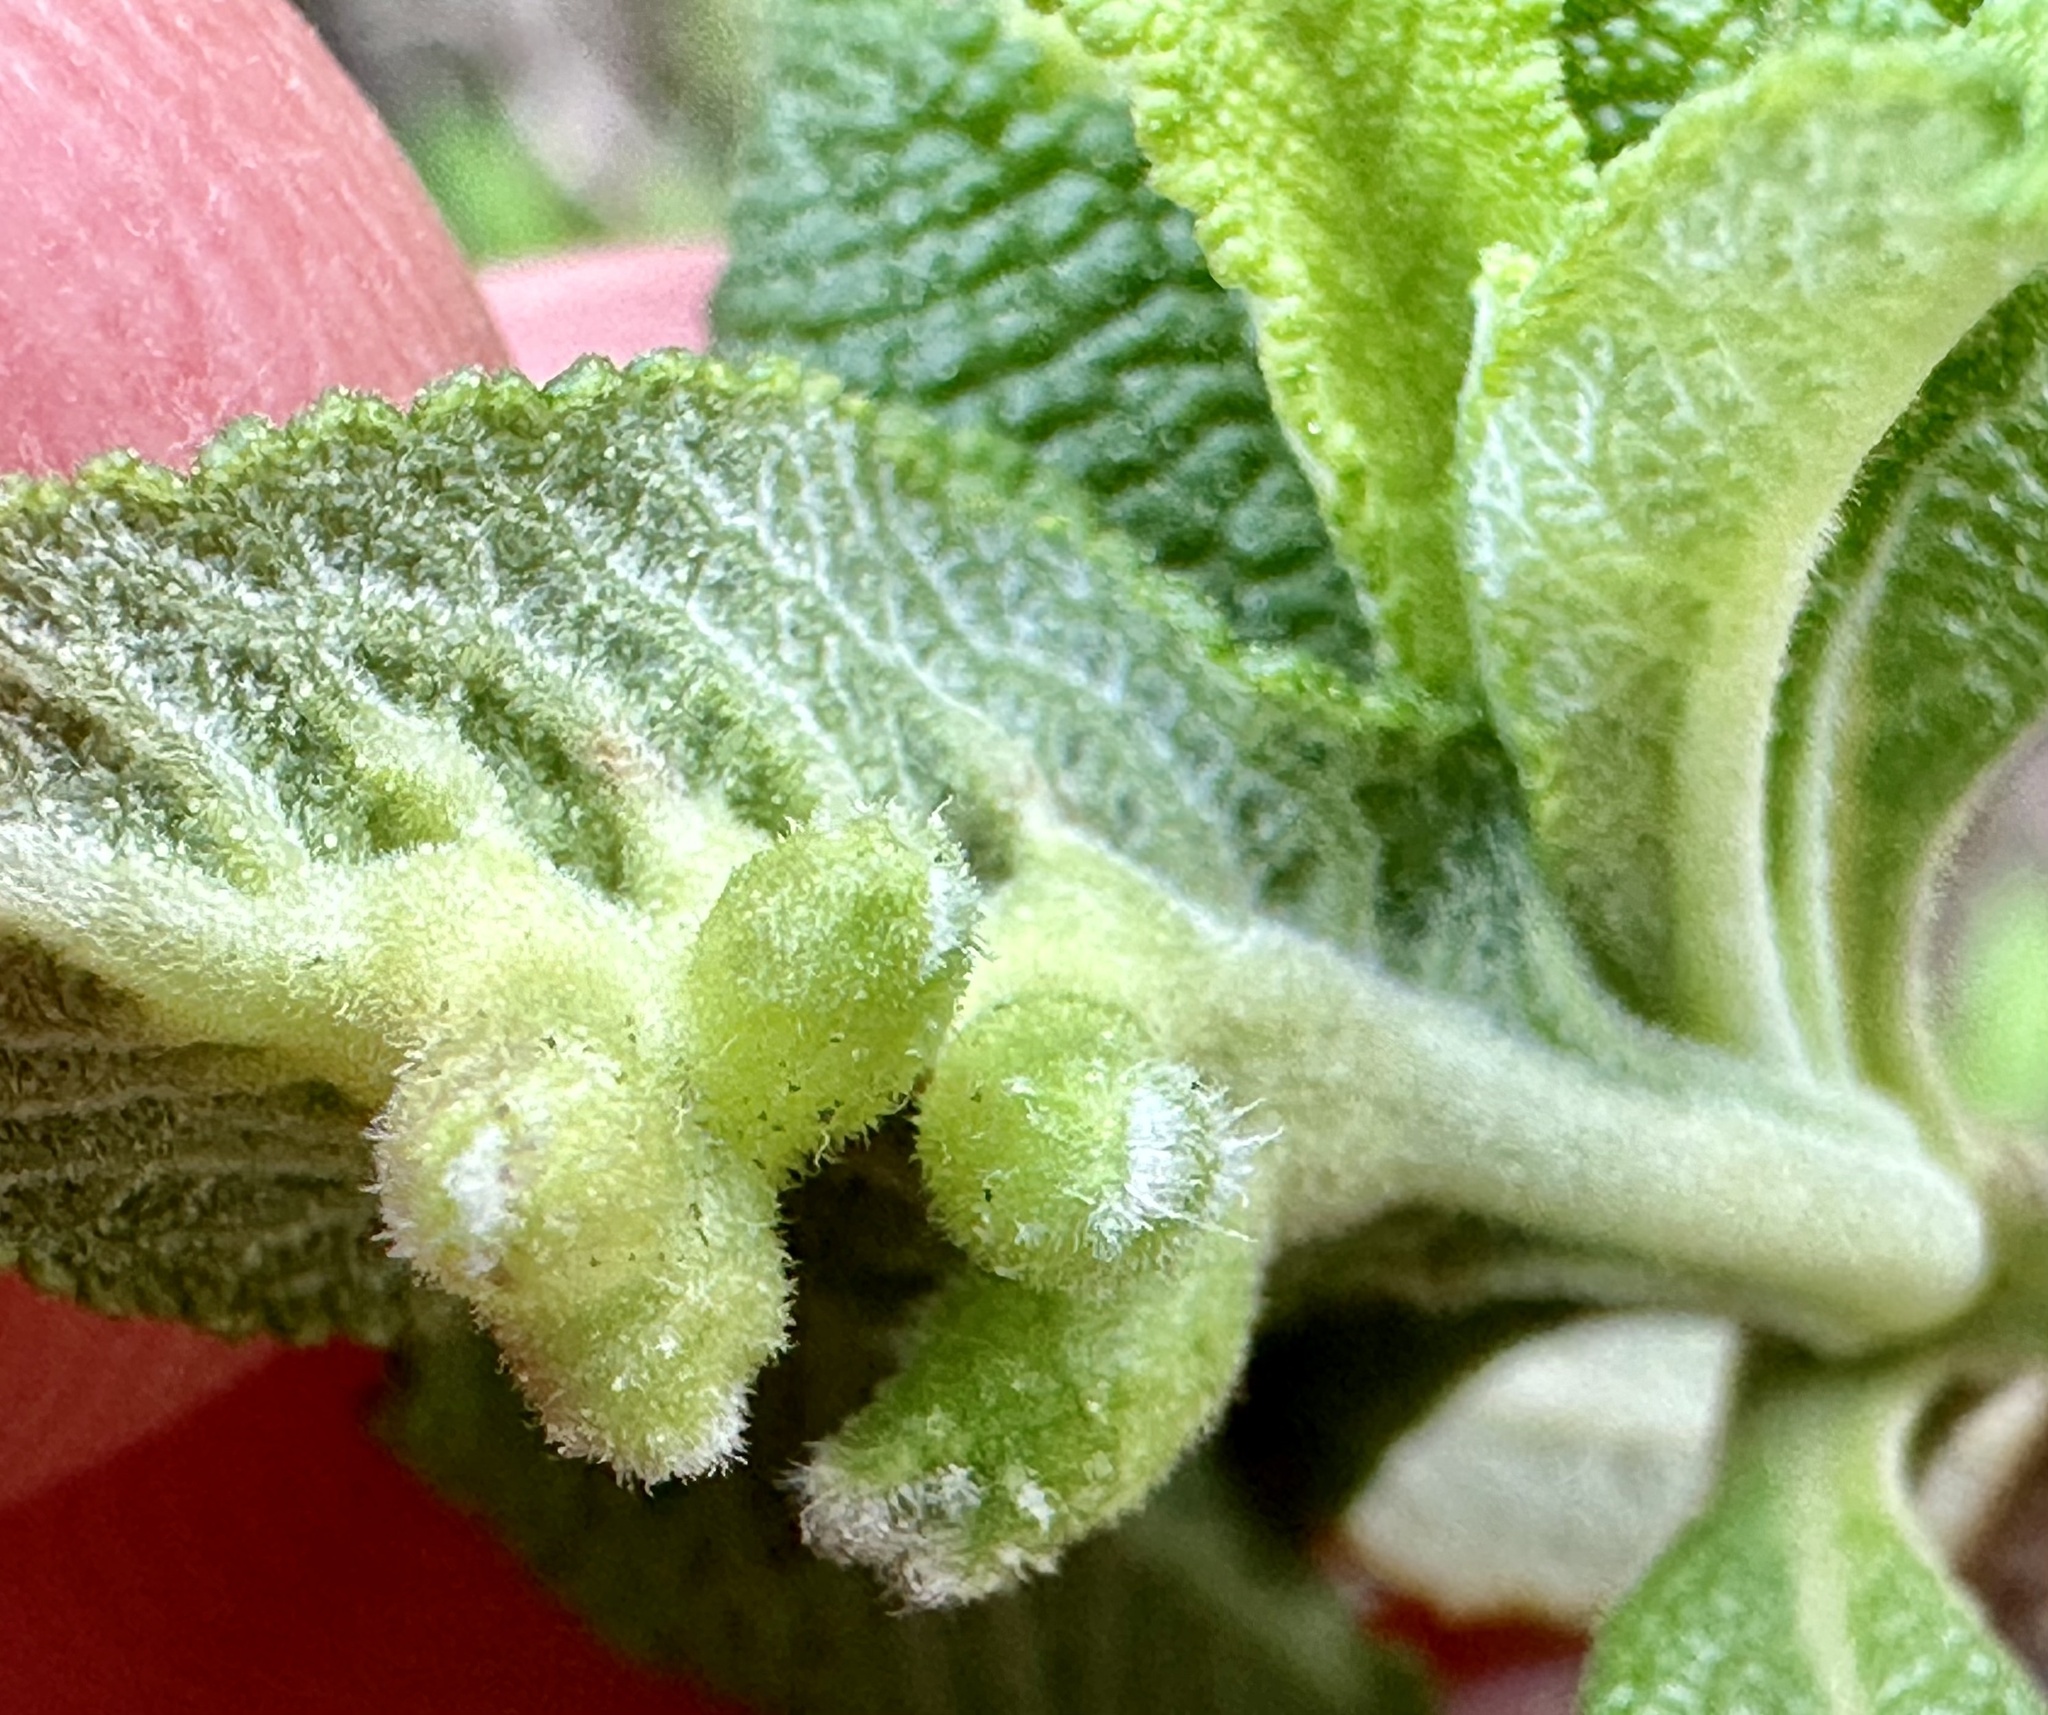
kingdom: Animalia
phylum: Arthropoda
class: Insecta
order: Diptera
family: Cecidomyiidae
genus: Rhopalomyia
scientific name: Rhopalomyia audibertiae
